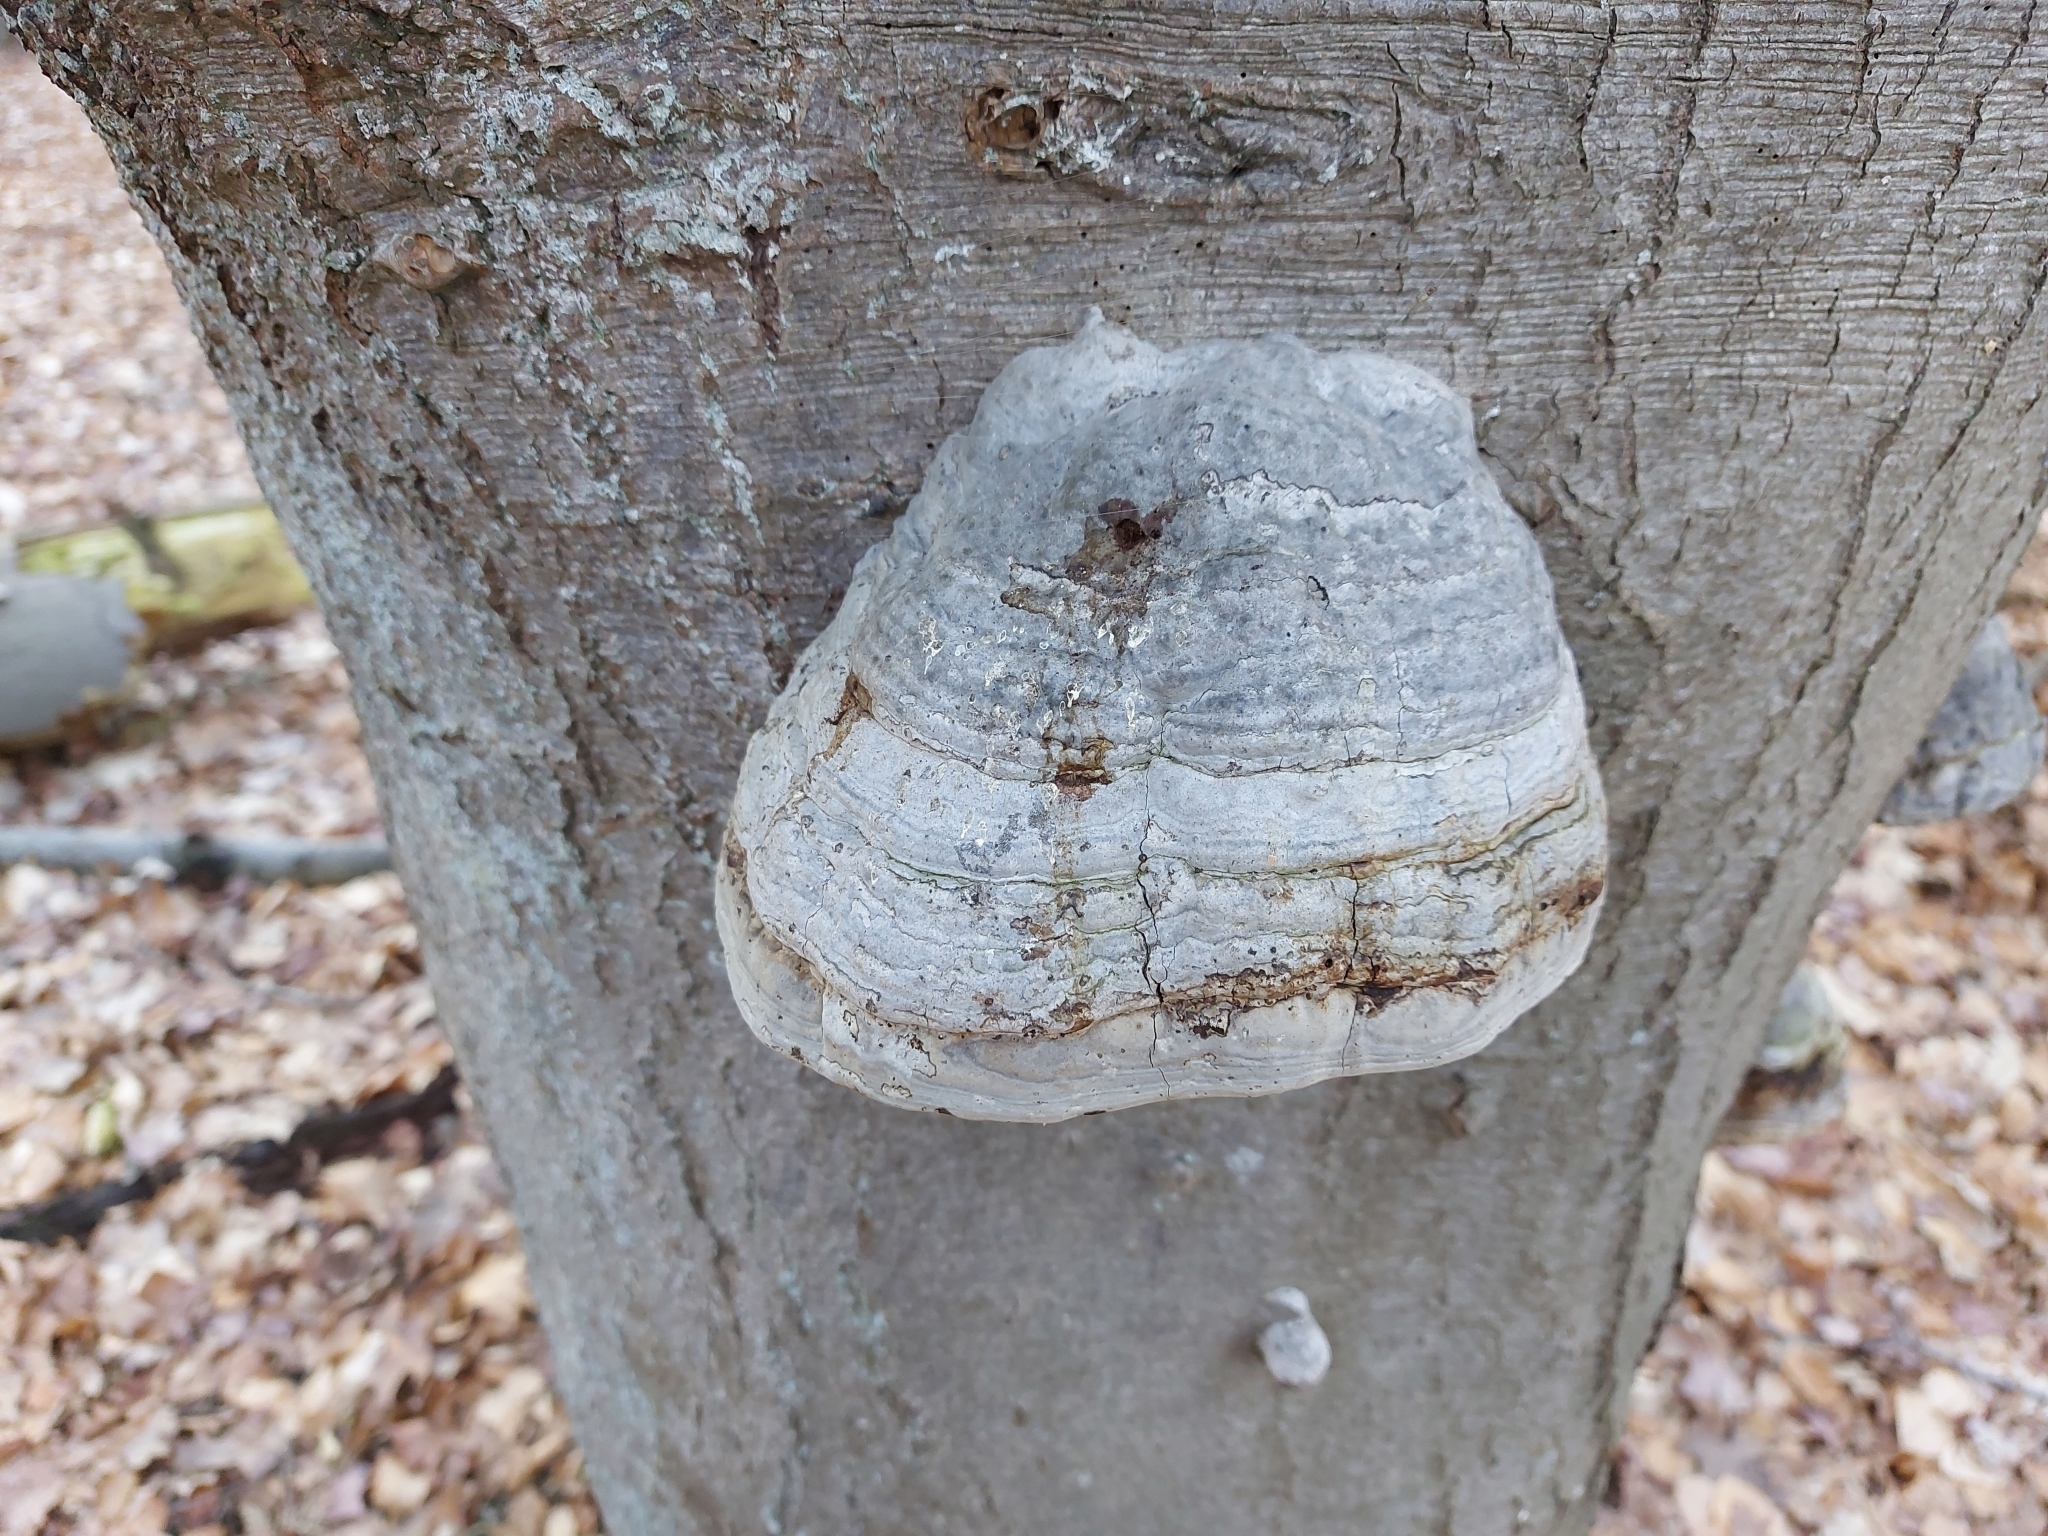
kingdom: Fungi
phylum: Basidiomycota
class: Agaricomycetes
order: Polyporales
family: Polyporaceae
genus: Fomes
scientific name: Fomes fomentarius
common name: Hoof fungus
